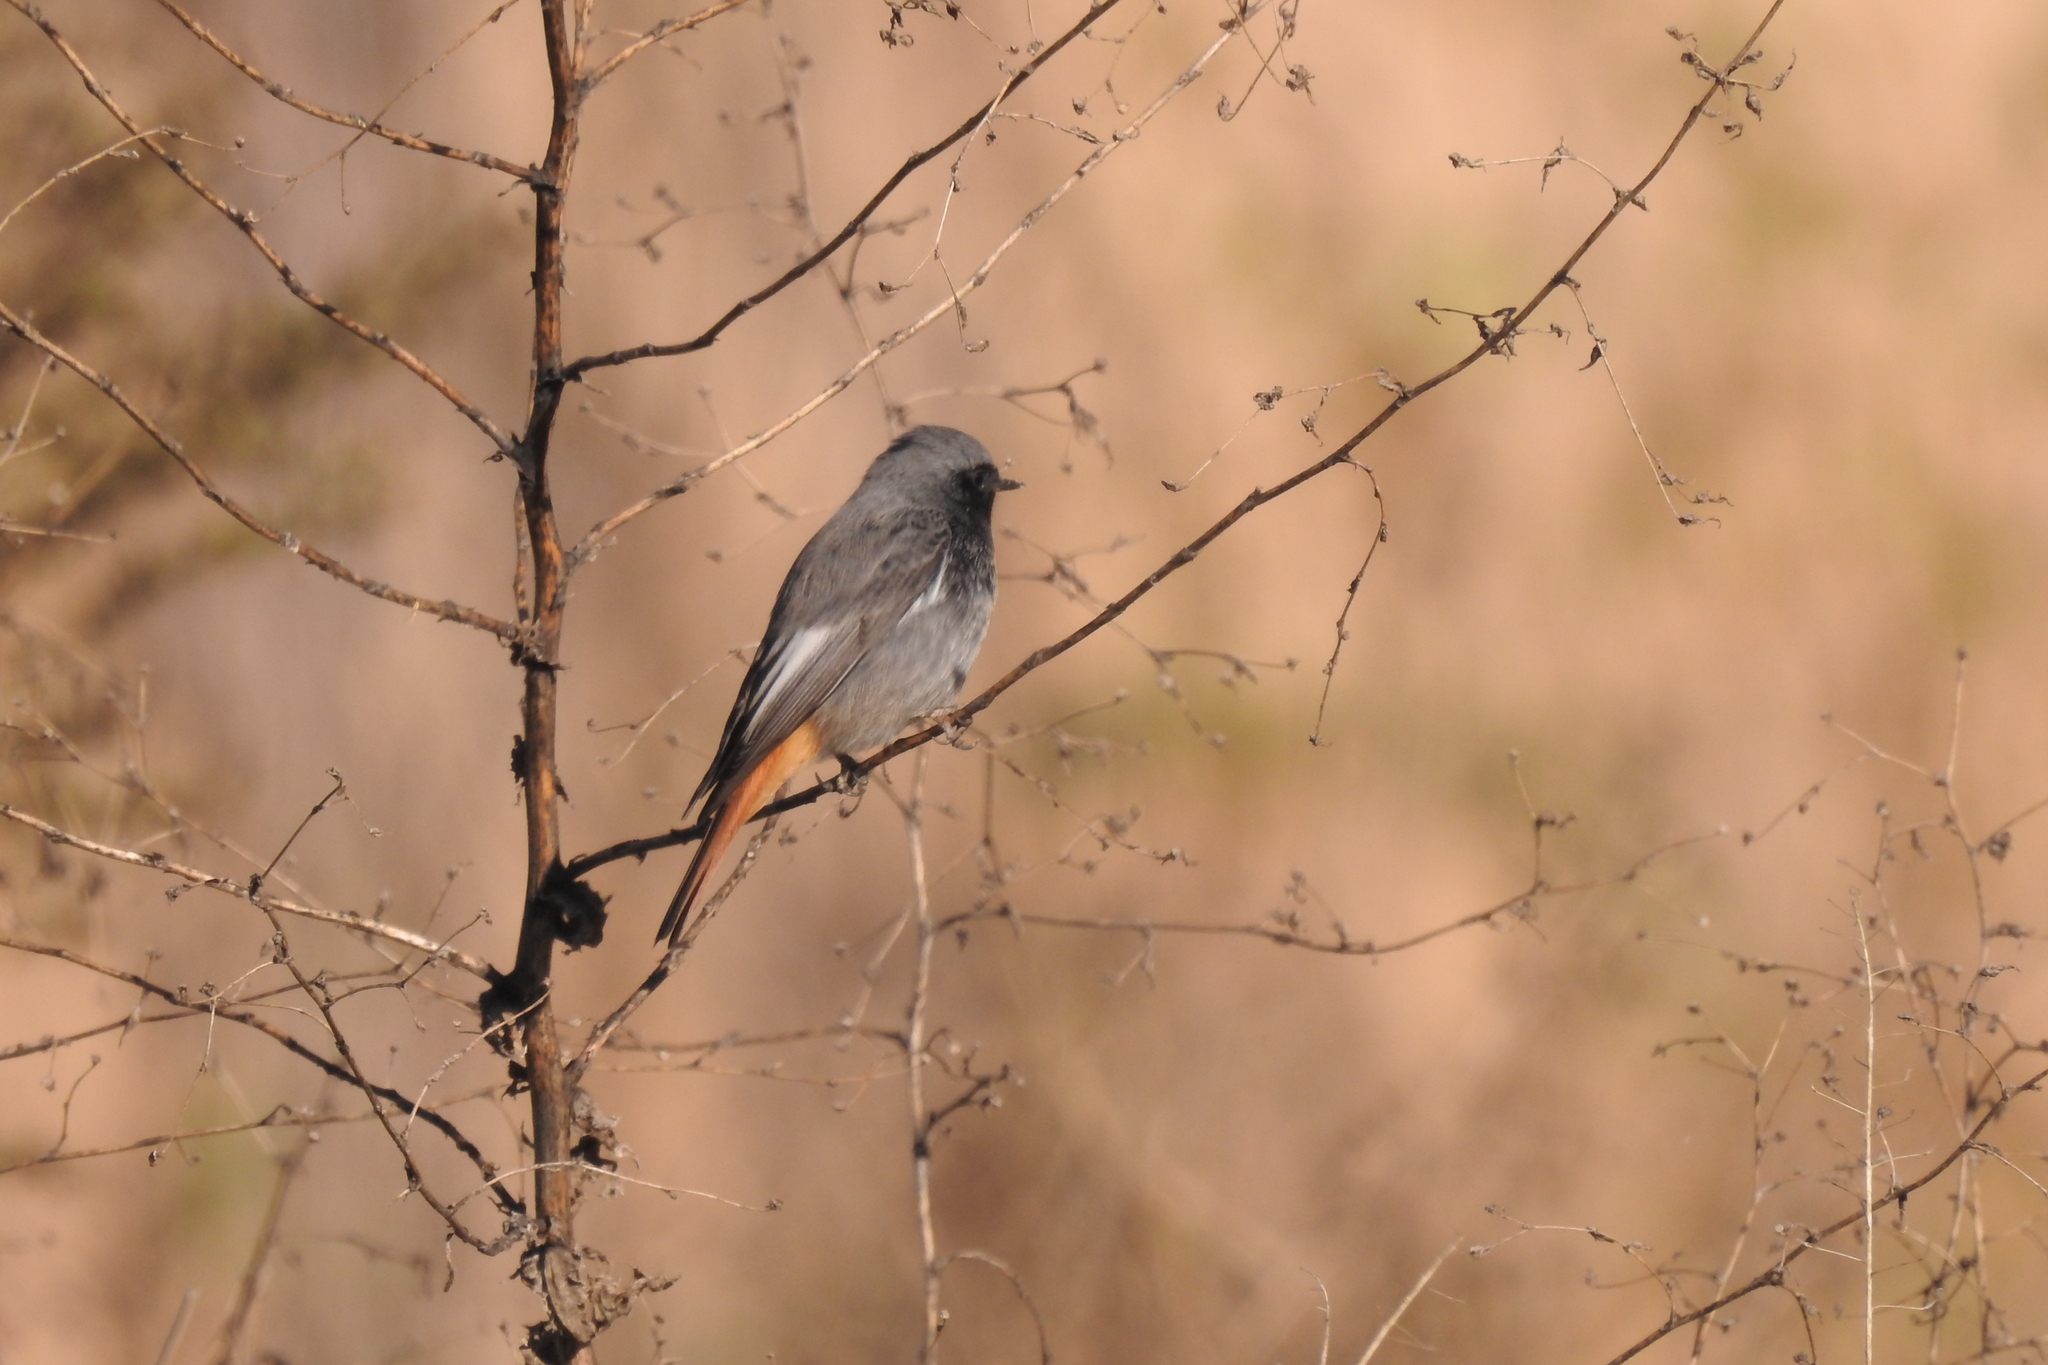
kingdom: Animalia
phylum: Chordata
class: Aves
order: Passeriformes
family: Muscicapidae
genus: Phoenicurus
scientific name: Phoenicurus ochruros
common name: Black redstart
